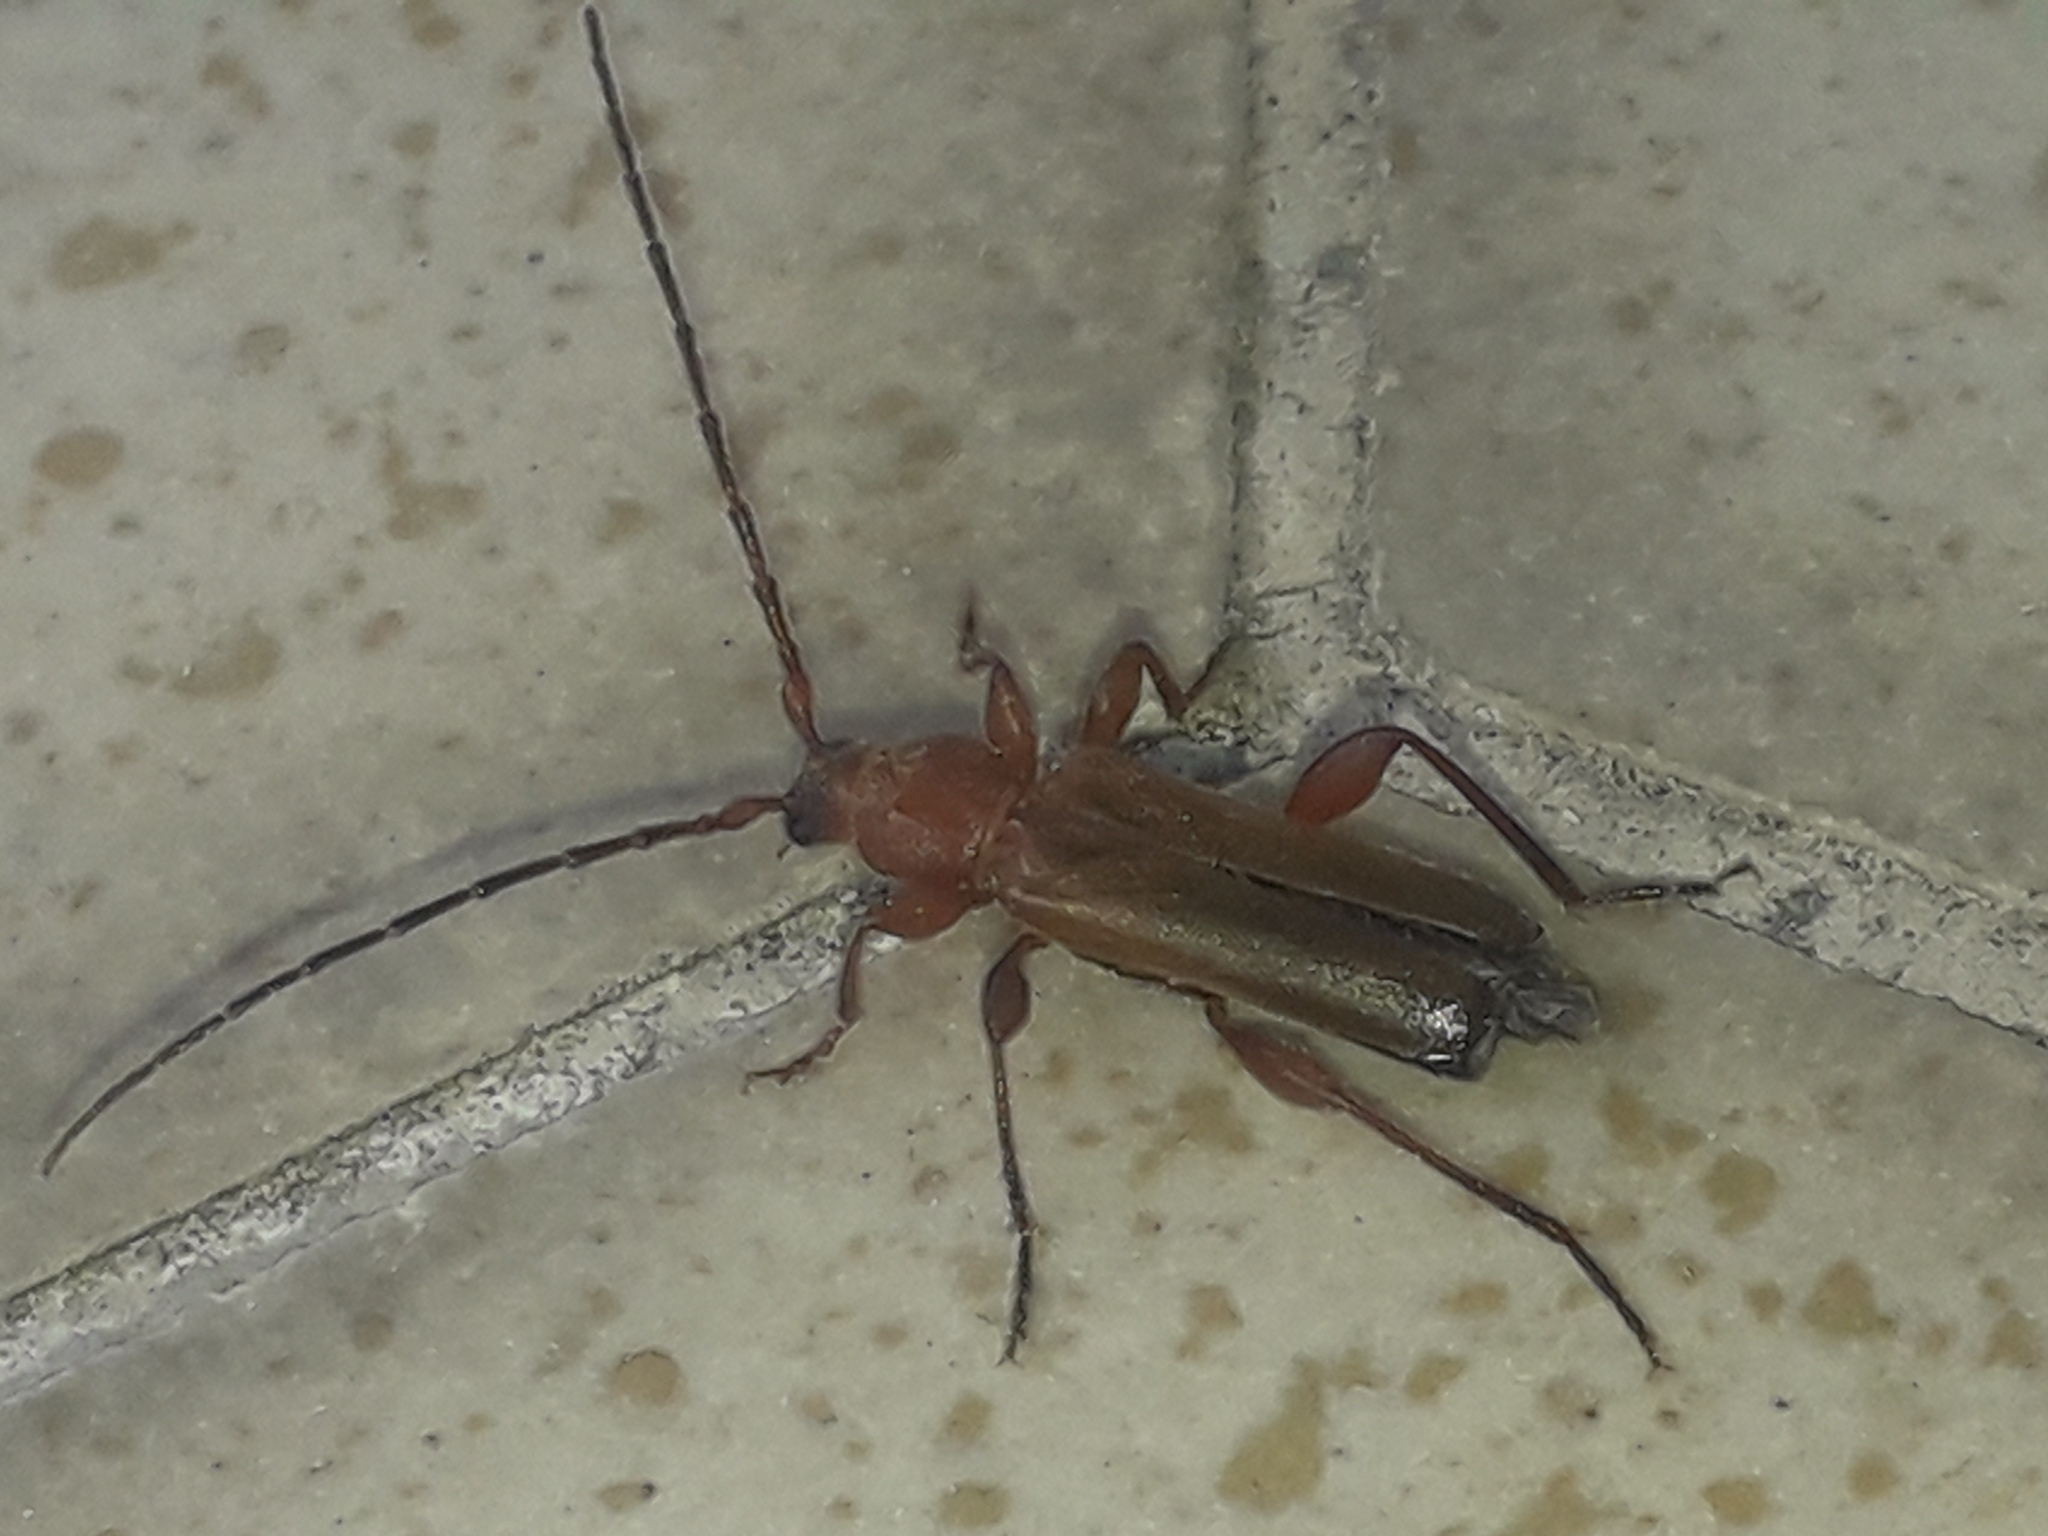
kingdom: Animalia
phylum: Arthropoda
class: Insecta
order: Coleoptera
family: Cerambycidae
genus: Phymatodes
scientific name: Phymatodes testaceus
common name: Long-horned beetle
